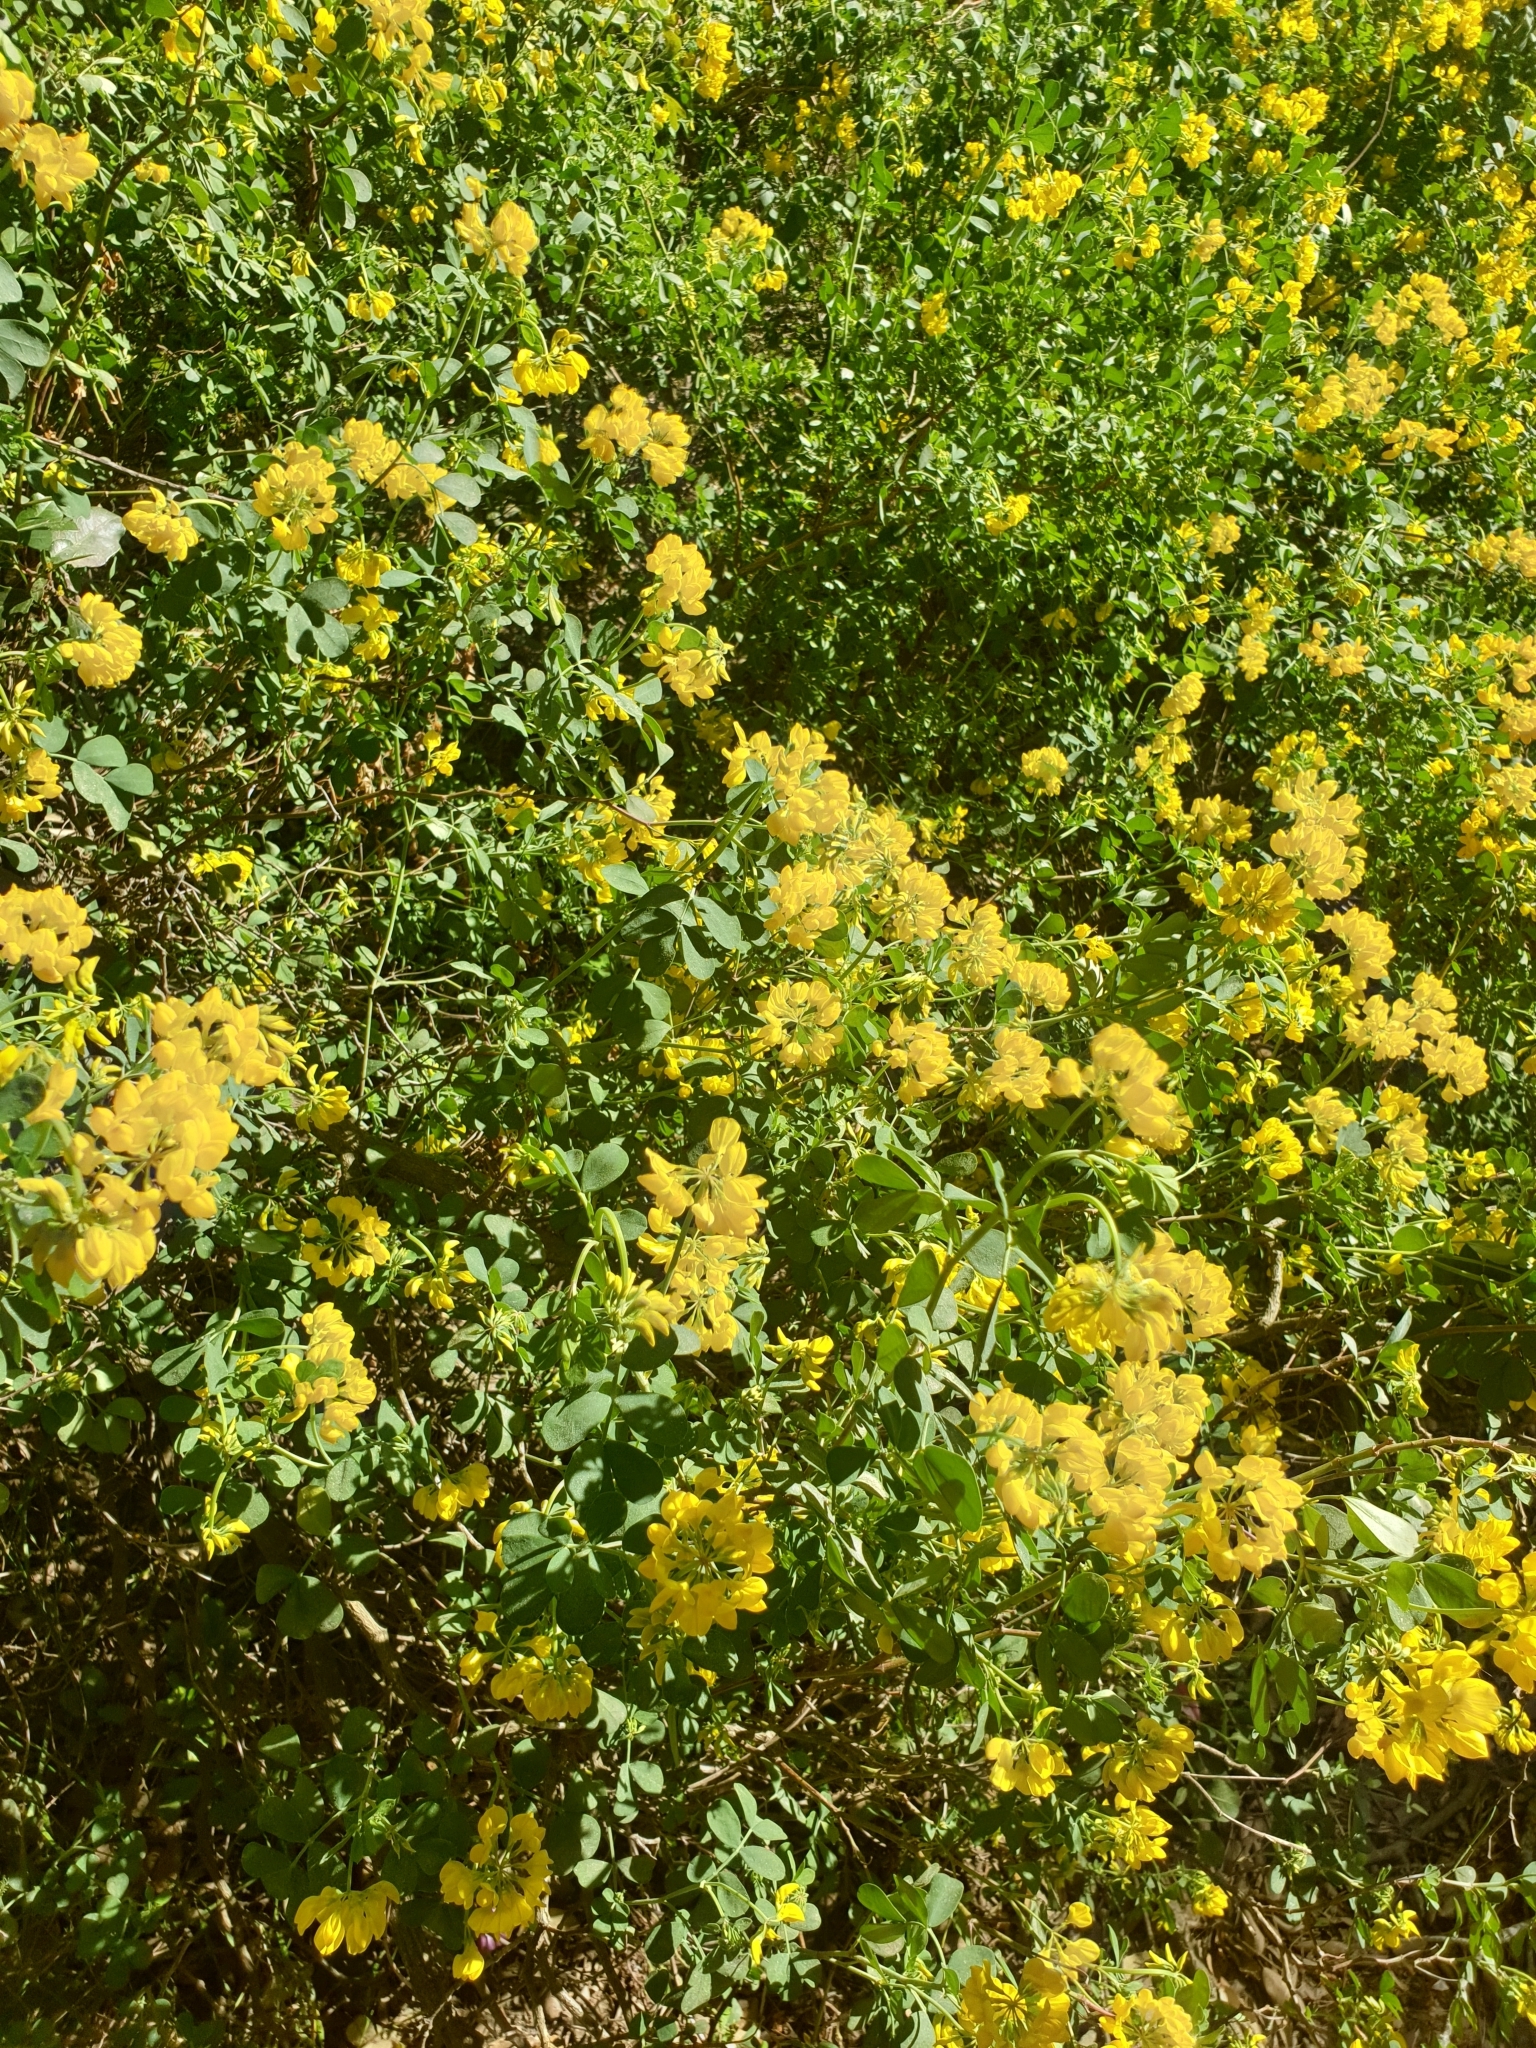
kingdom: Plantae
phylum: Tracheophyta
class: Magnoliopsida
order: Fabales
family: Fabaceae
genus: Coronilla
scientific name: Coronilla valentina
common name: Shrubby scorpion-vetch
